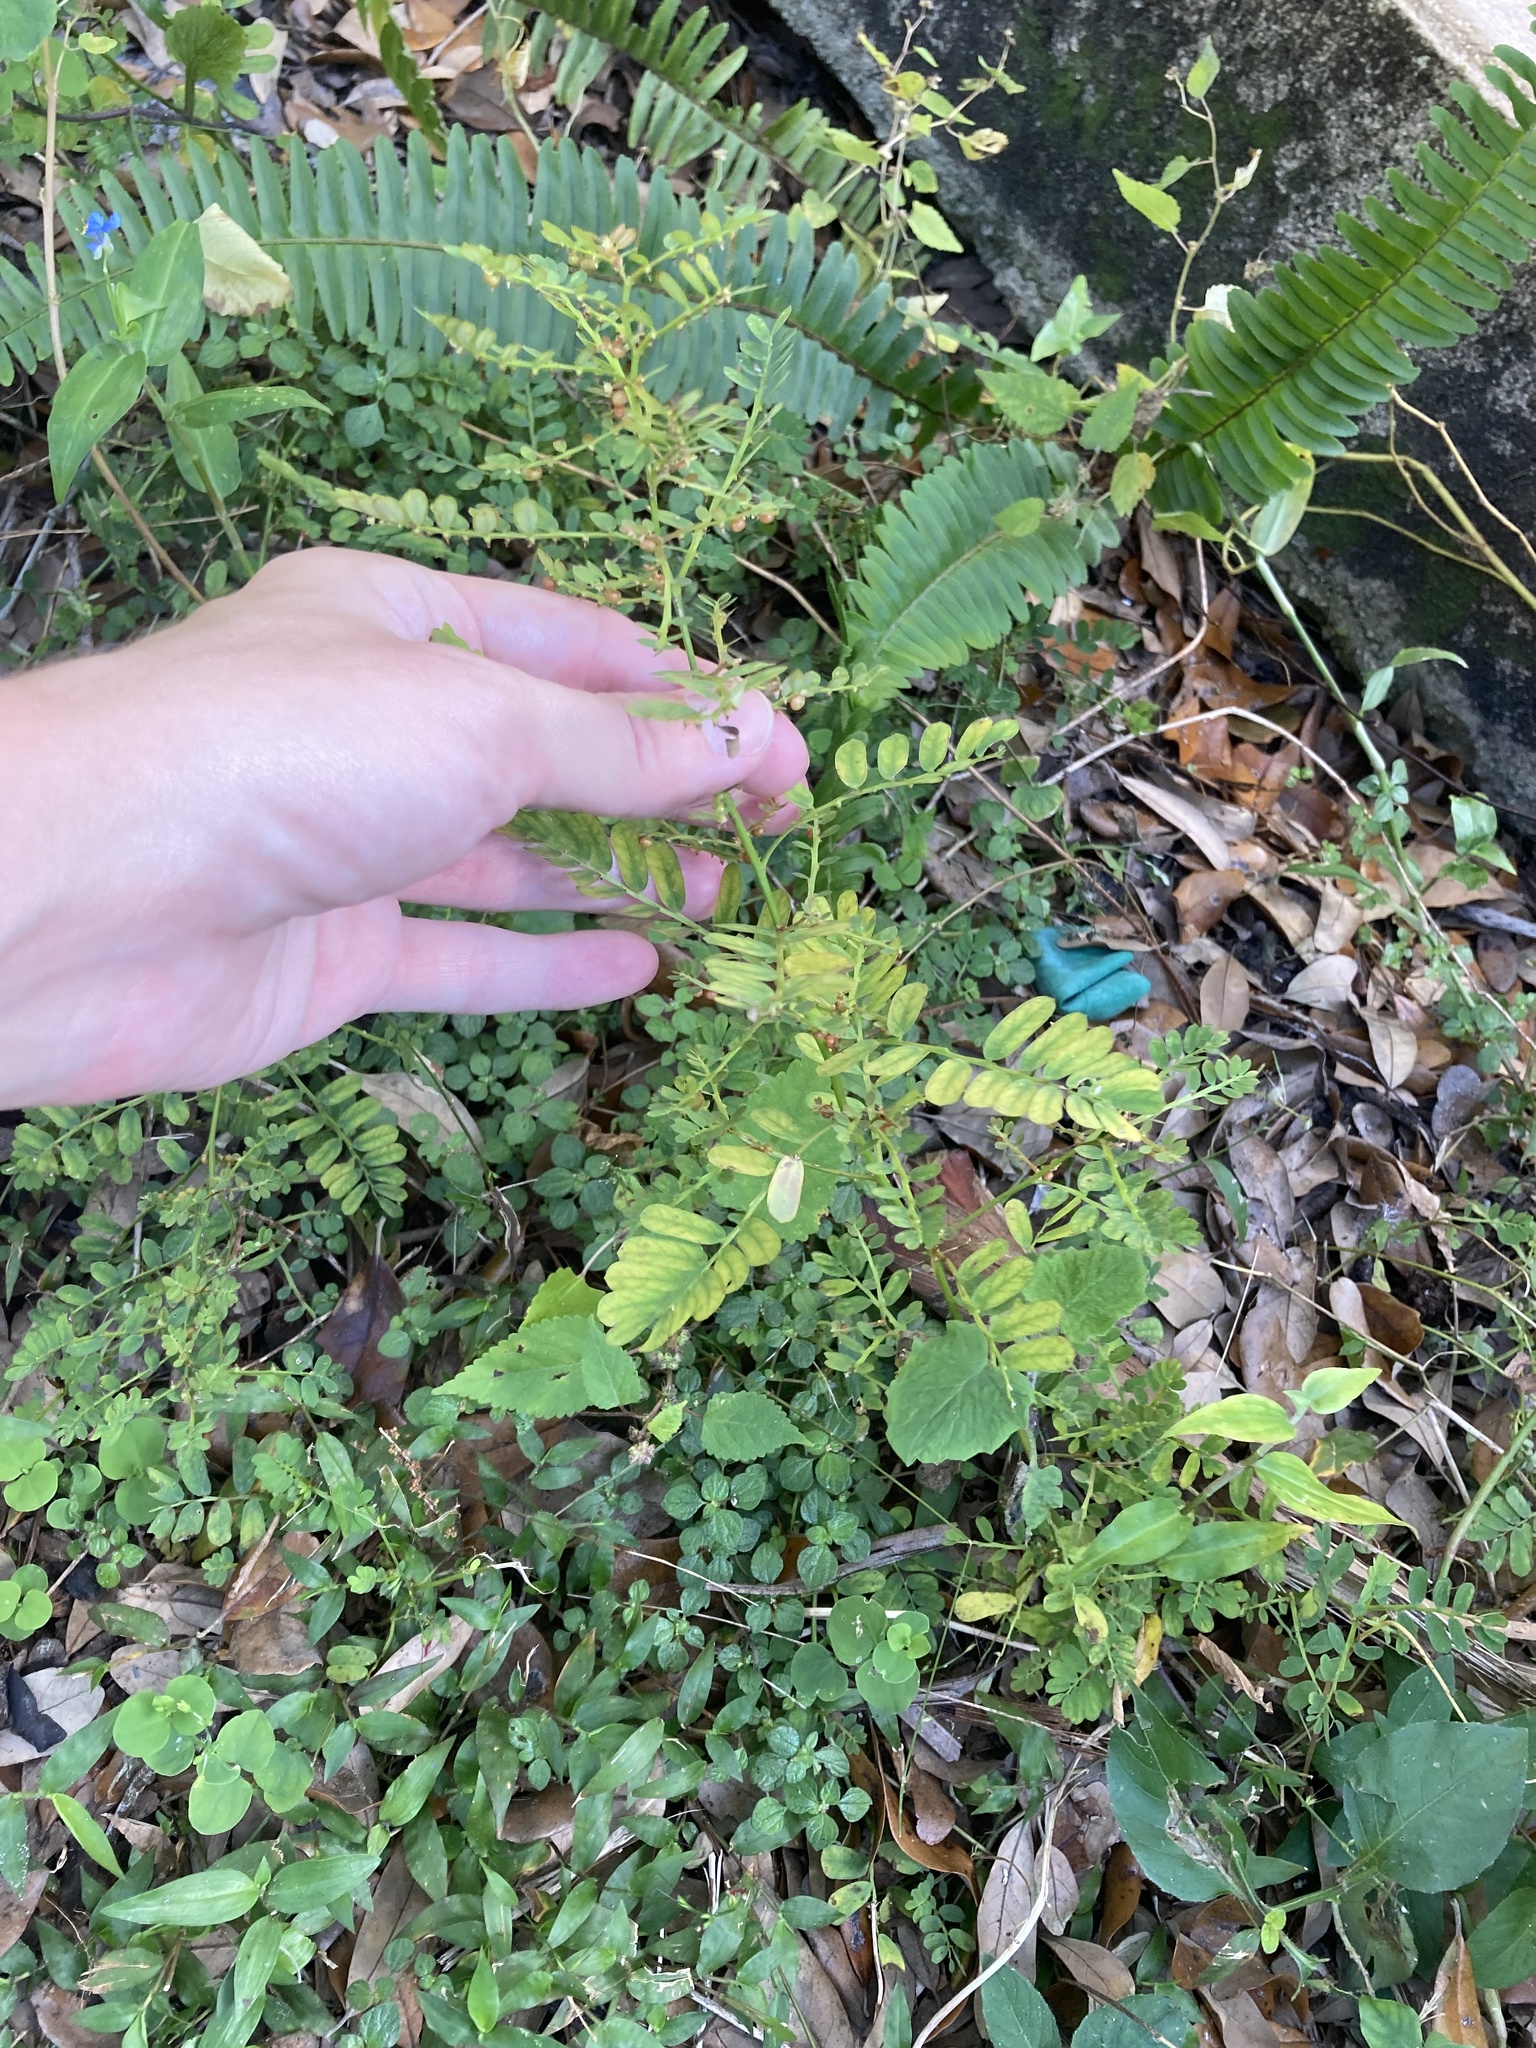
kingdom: Plantae
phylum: Tracheophyta
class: Magnoliopsida
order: Malpighiales
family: Phyllanthaceae
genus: Phyllanthus
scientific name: Phyllanthus urinaria
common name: Chamber bitter
